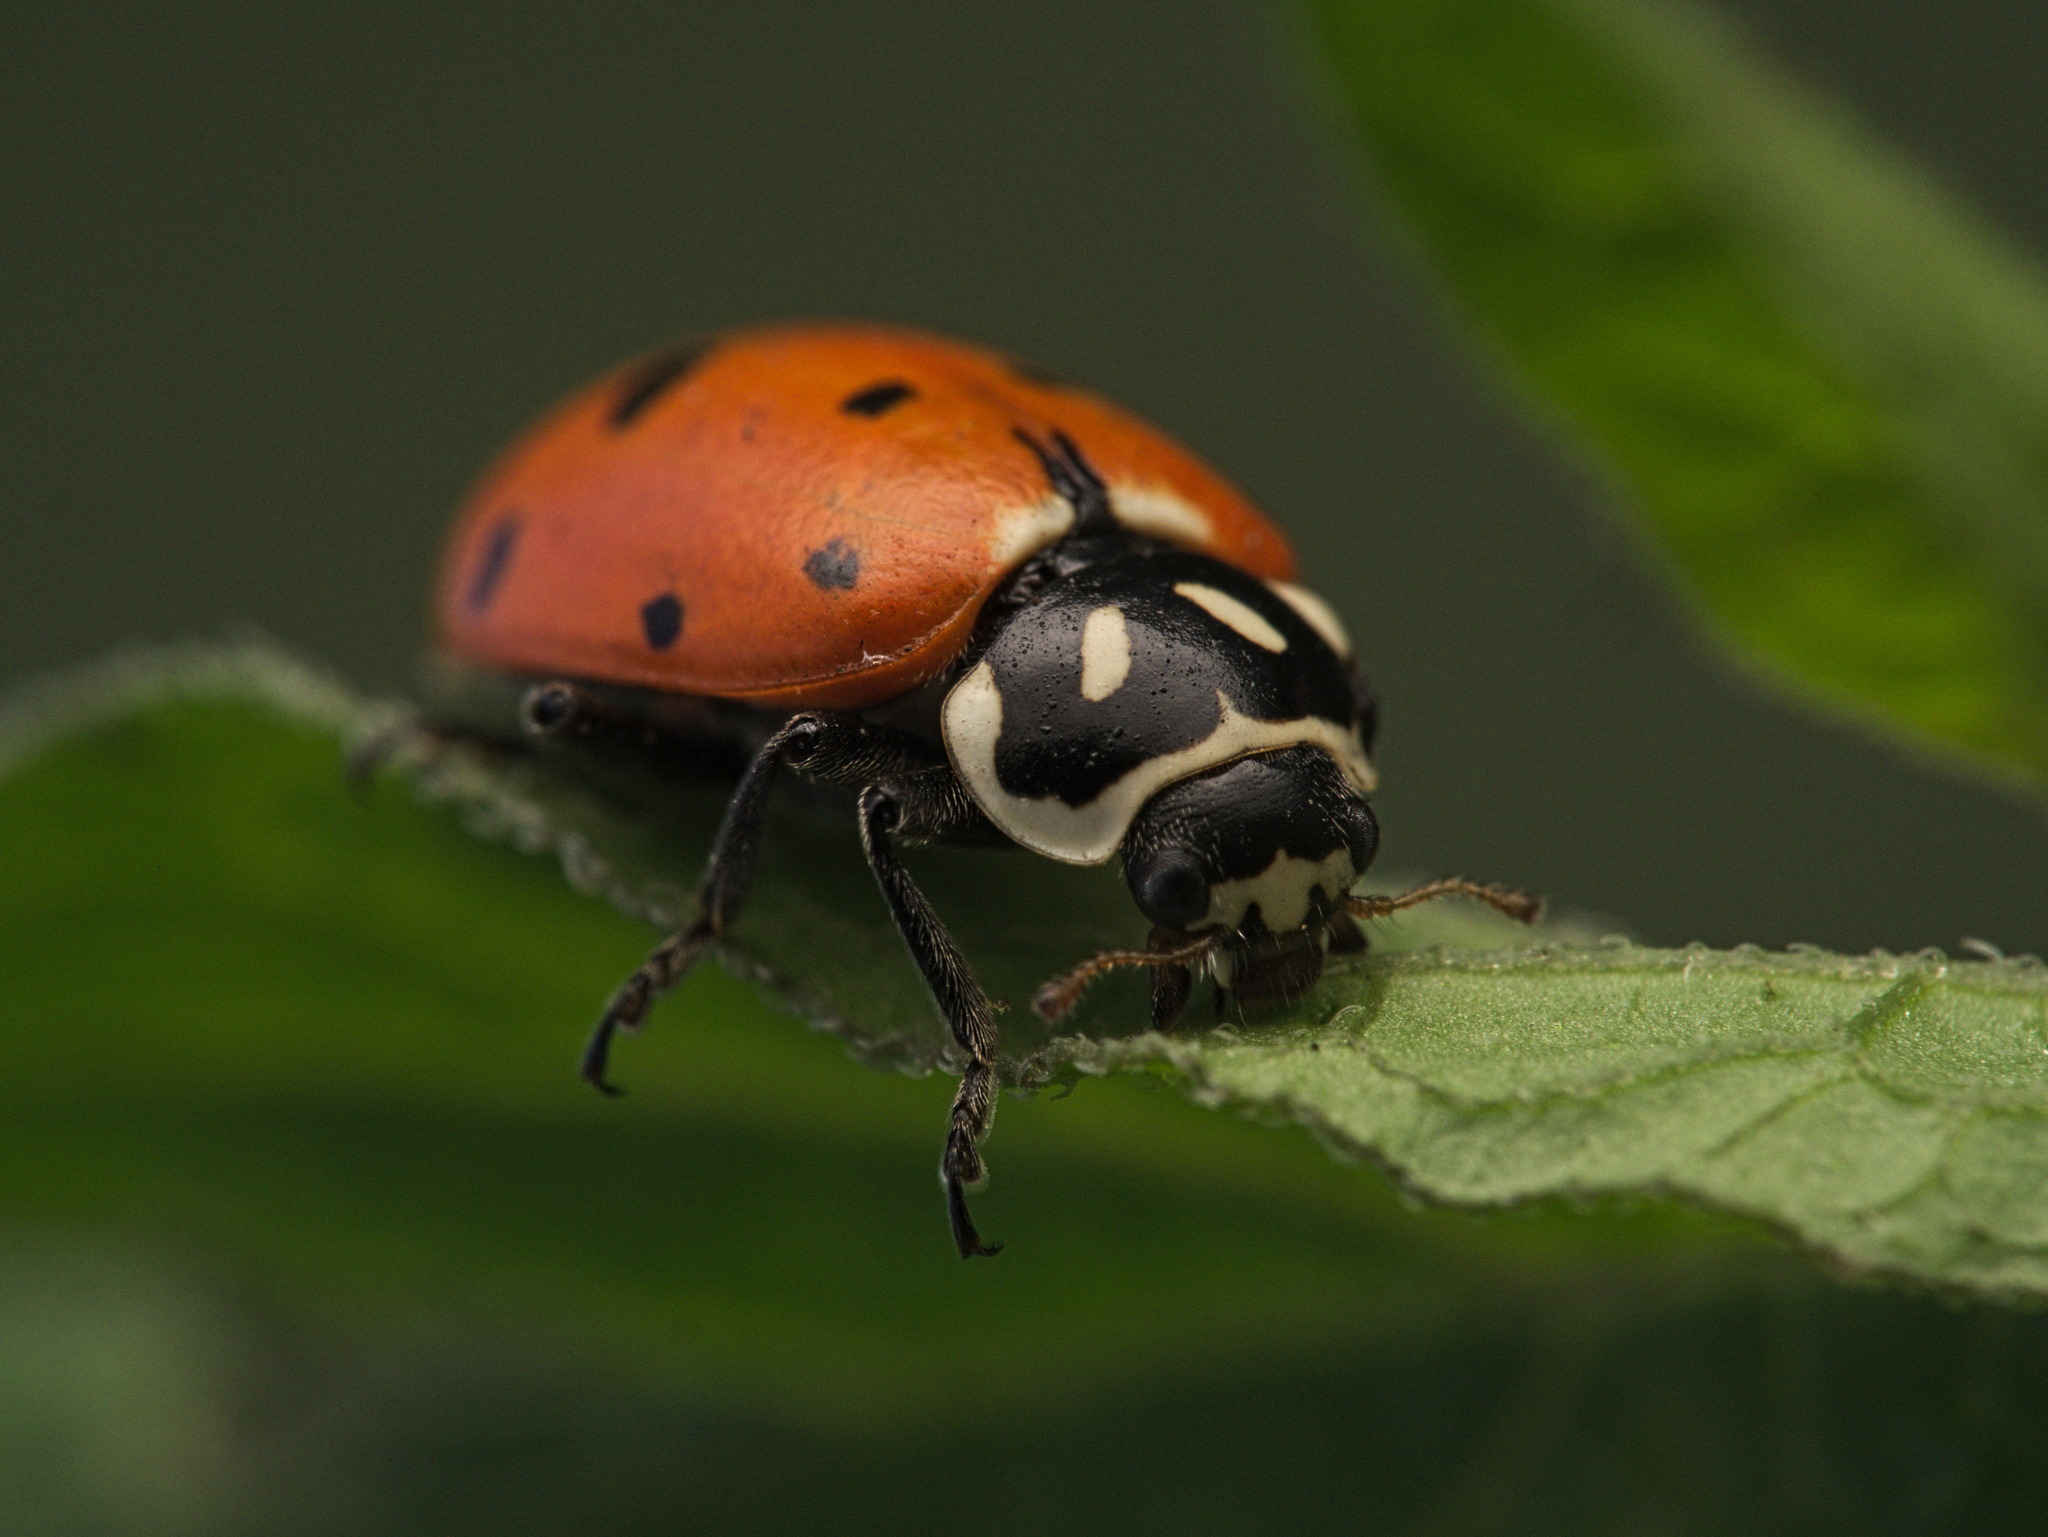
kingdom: Animalia
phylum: Arthropoda
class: Insecta
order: Coleoptera
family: Coccinellidae
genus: Hippodamia
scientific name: Hippodamia convergens
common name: Convergent lady beetle
